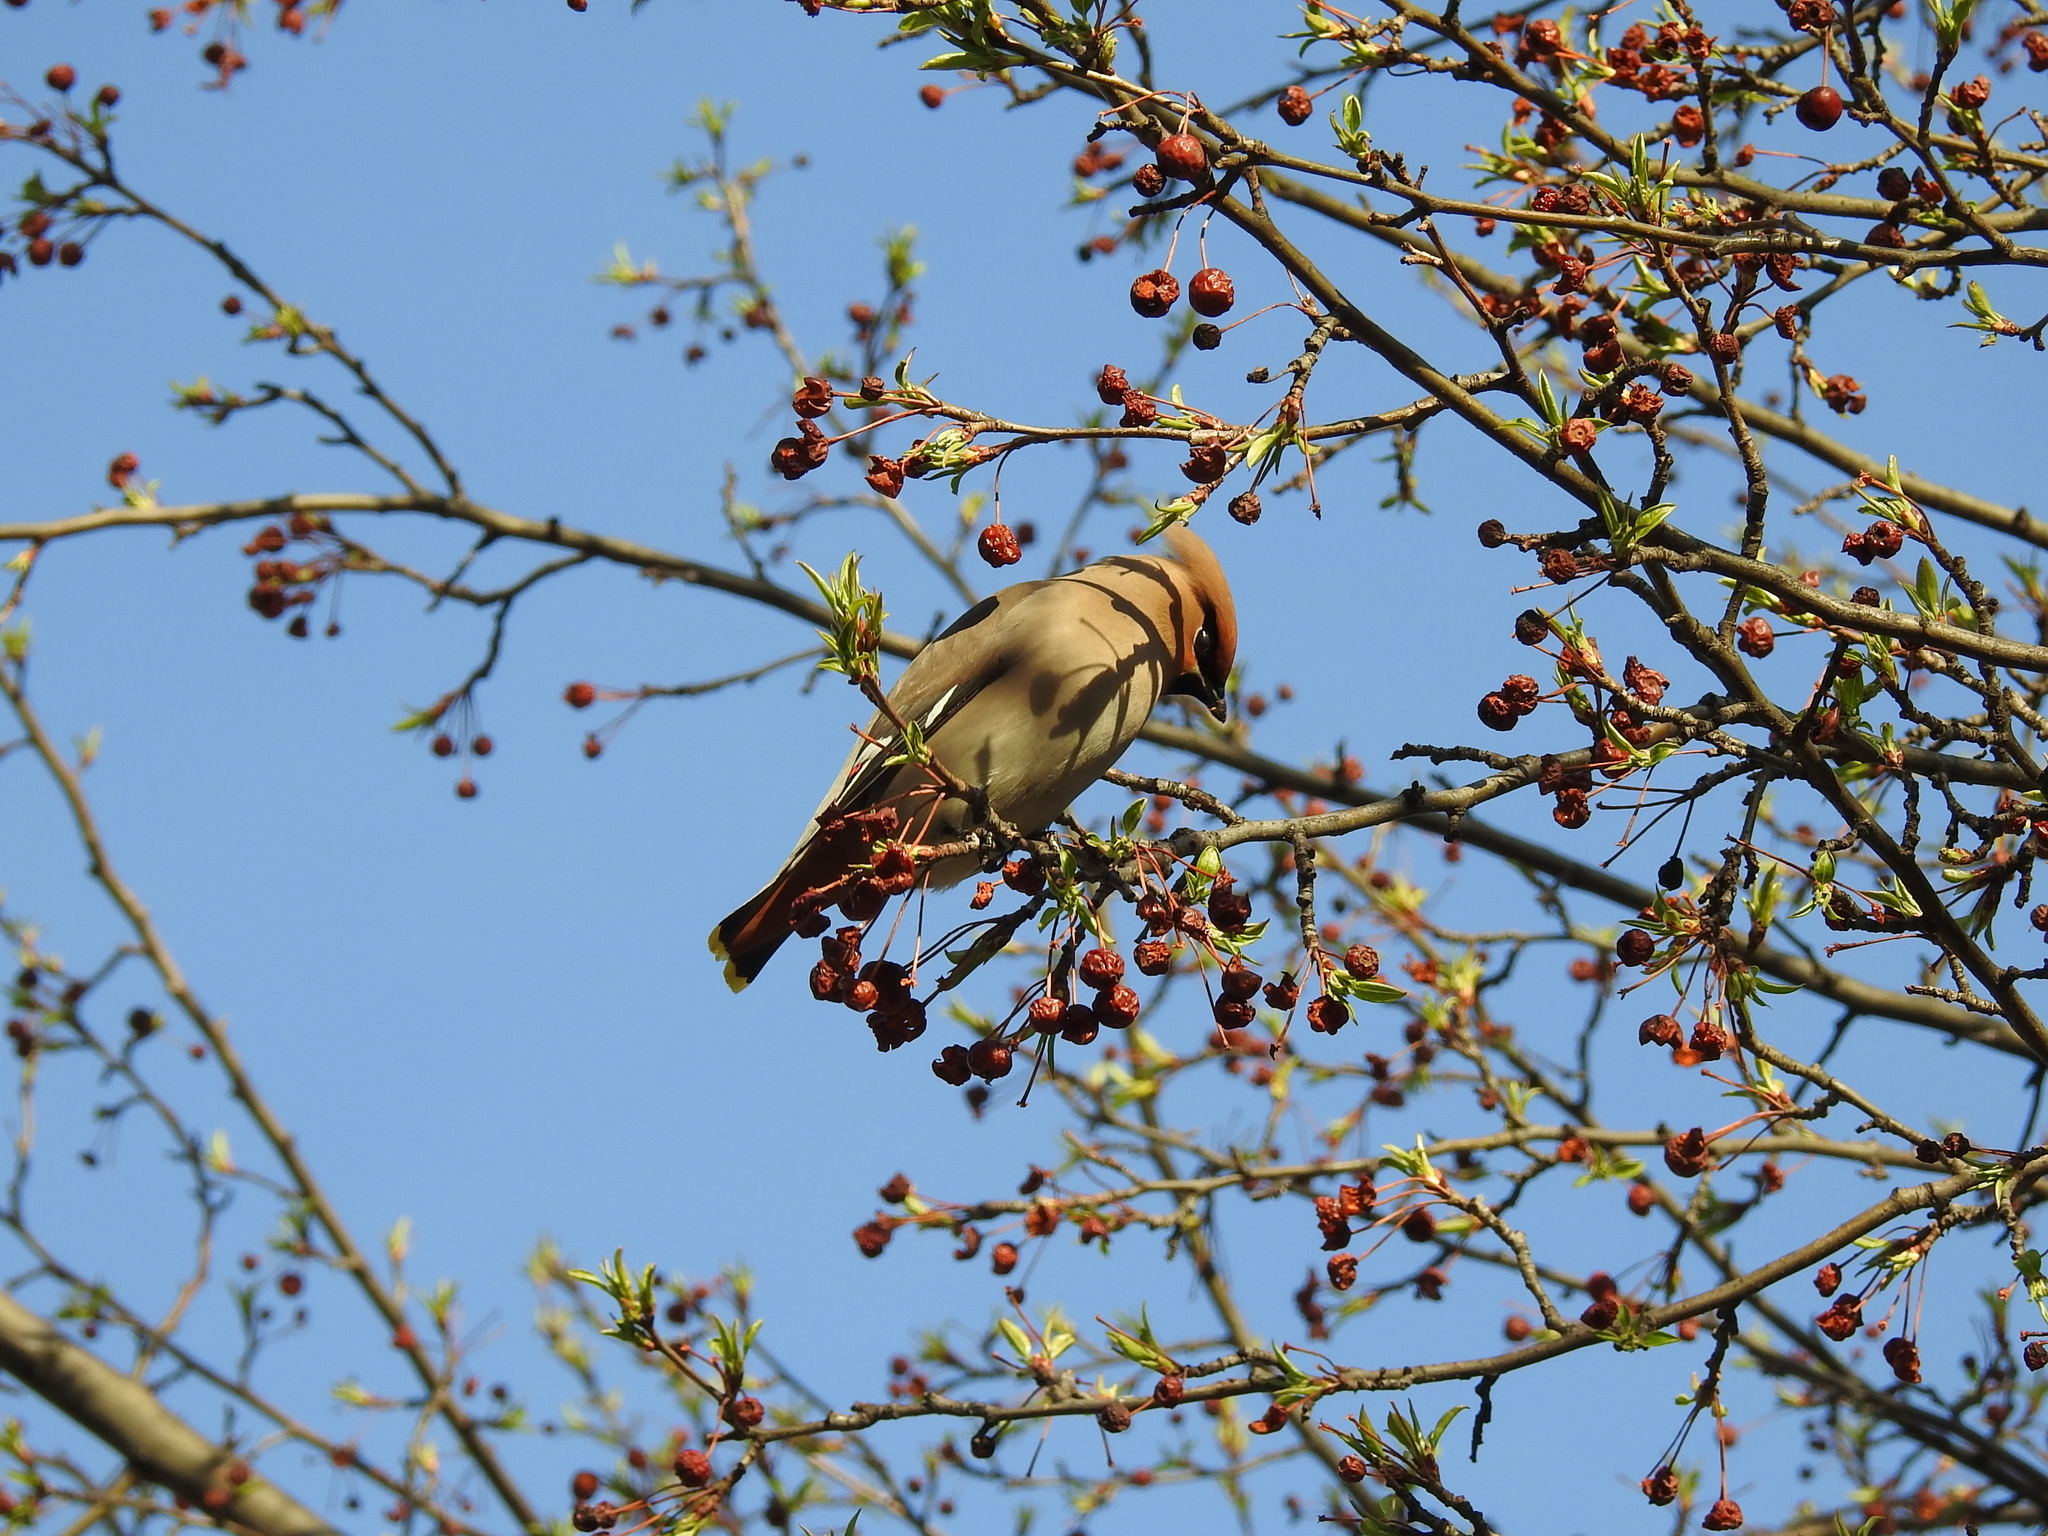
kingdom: Animalia
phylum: Chordata
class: Aves
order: Passeriformes
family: Bombycillidae
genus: Bombycilla
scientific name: Bombycilla garrulus
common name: Bohemian waxwing
